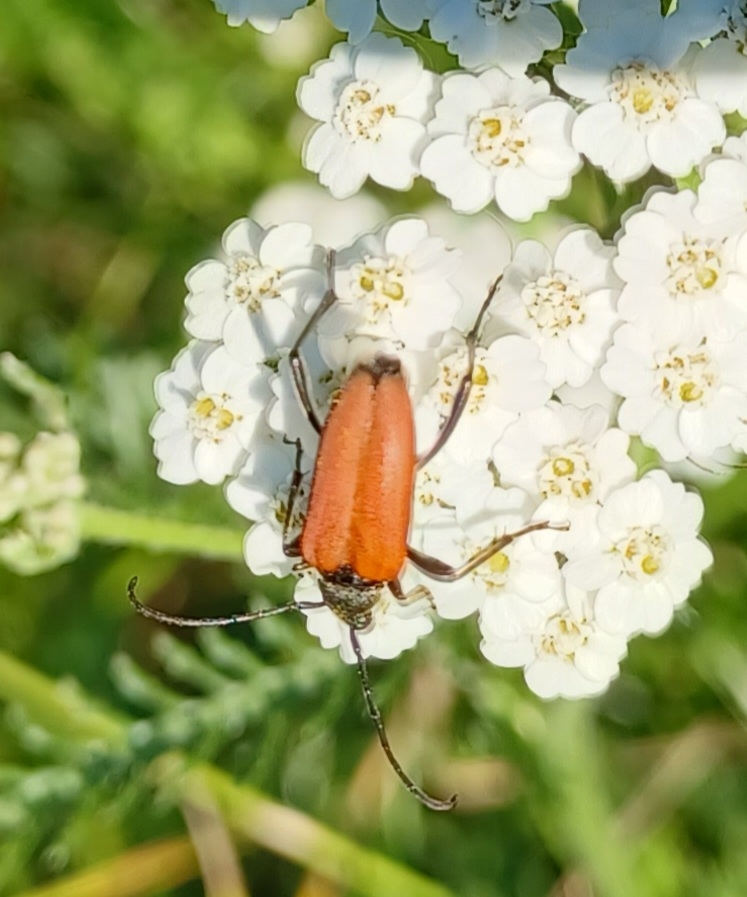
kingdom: Animalia
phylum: Arthropoda
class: Insecta
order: Coleoptera
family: Cerambycidae
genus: Anastrangalia
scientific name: Anastrangalia sanguinolenta
